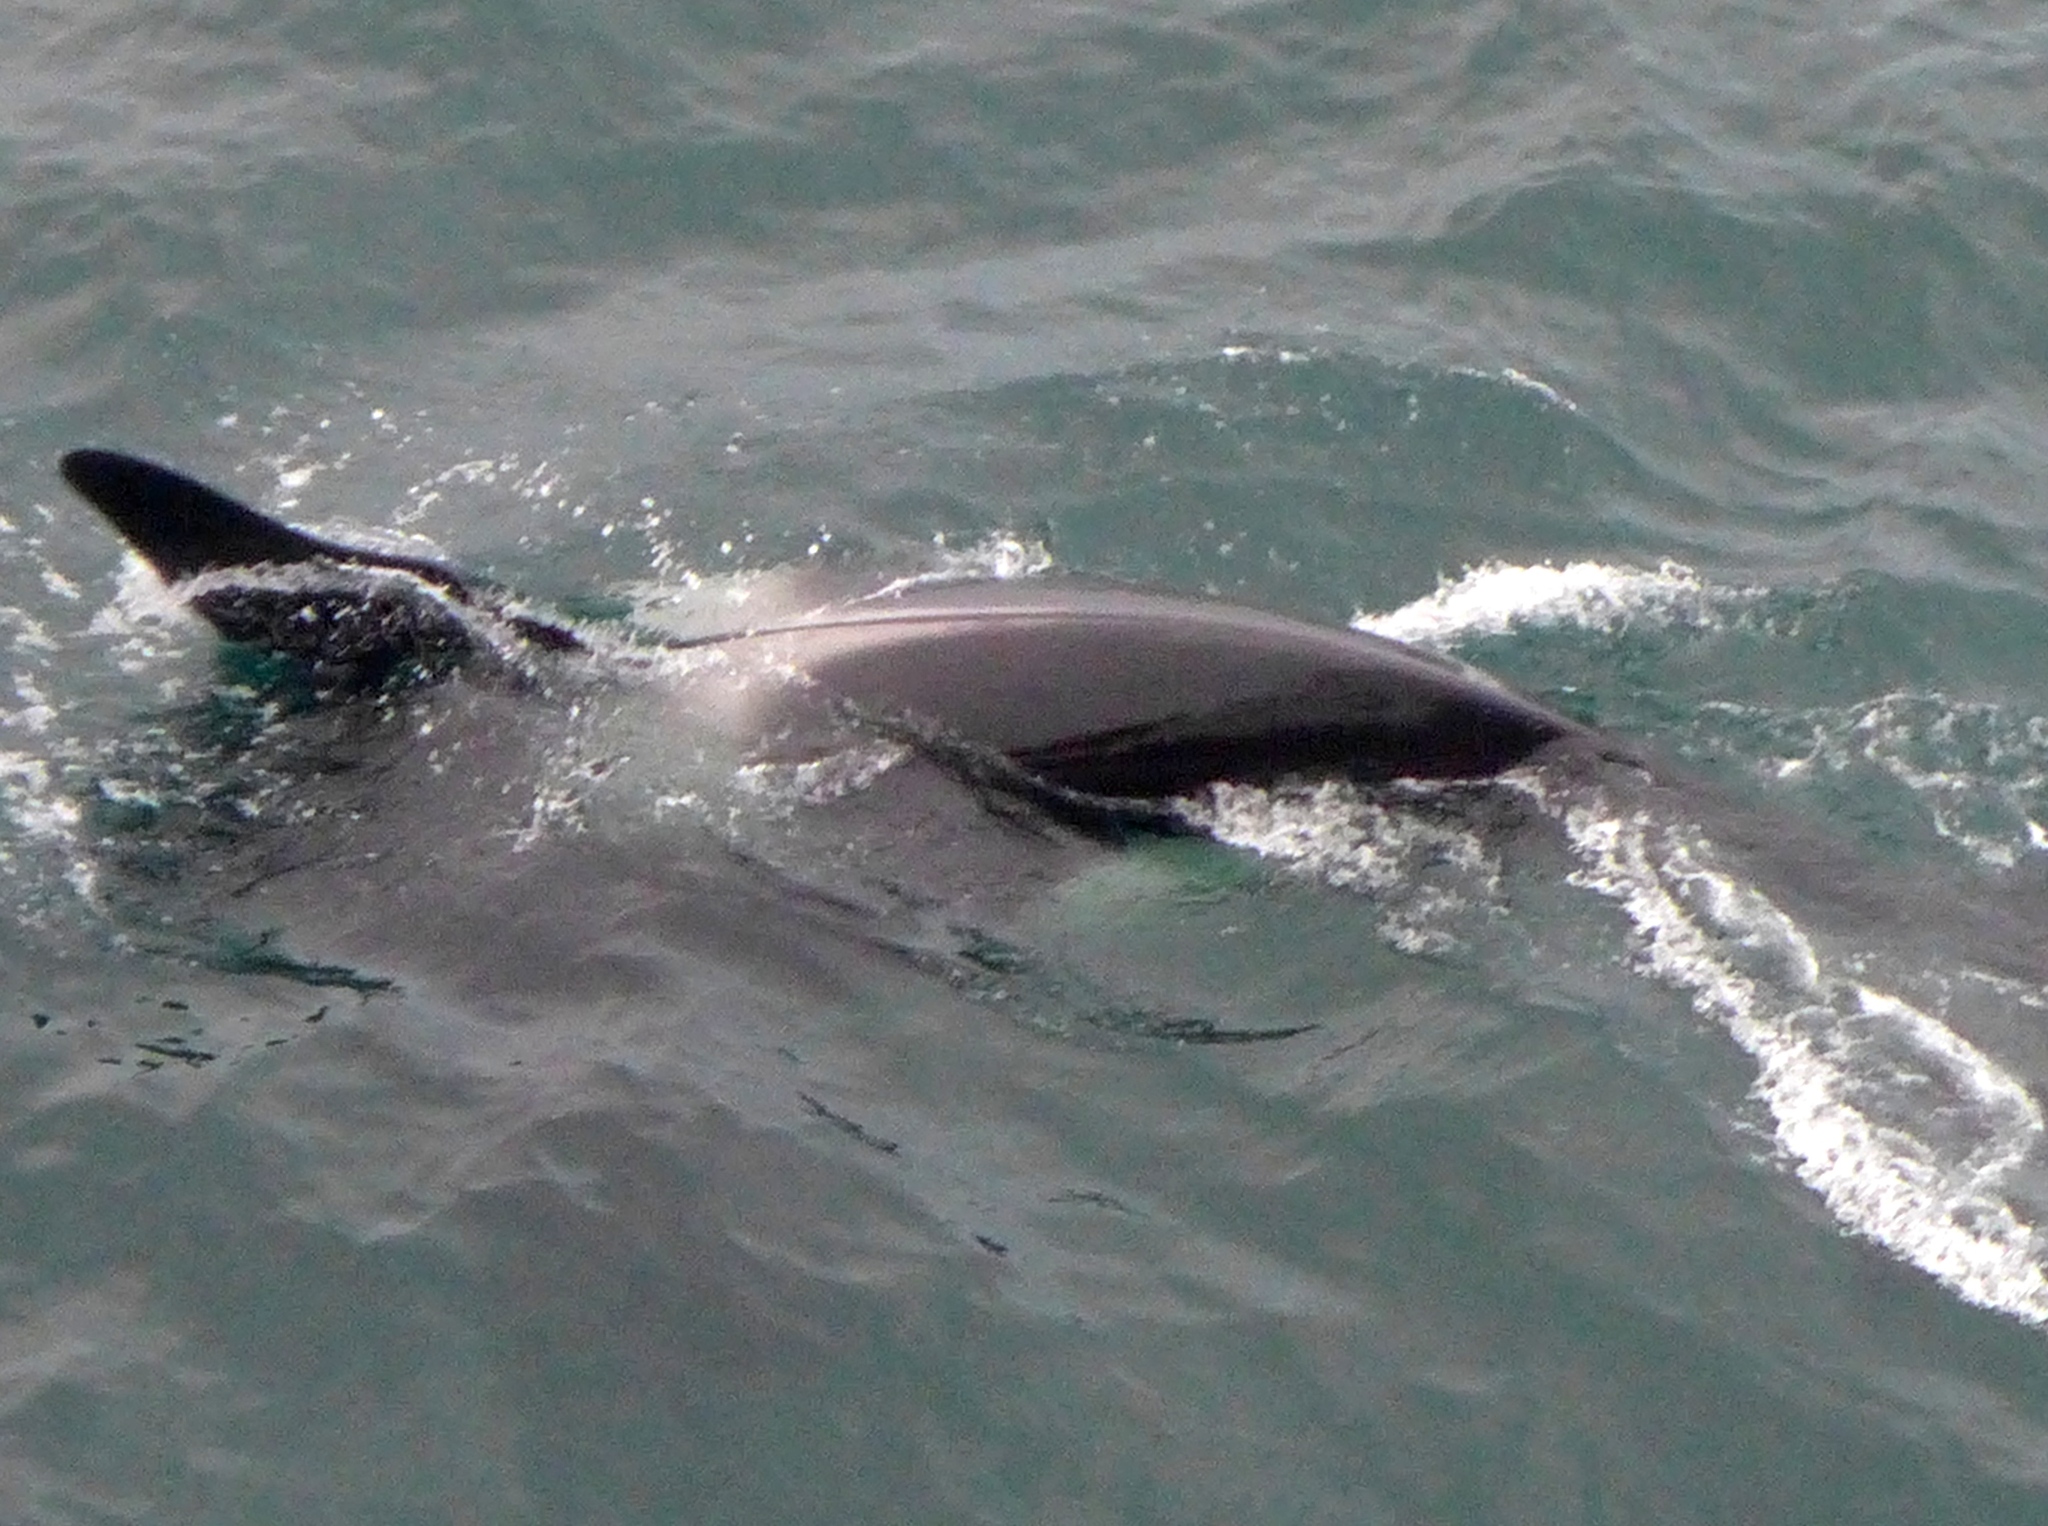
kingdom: Animalia
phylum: Chordata
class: Mammalia
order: Cetacea
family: Delphinidae
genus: Orcinus
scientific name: Orcinus orca
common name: Killer whale
